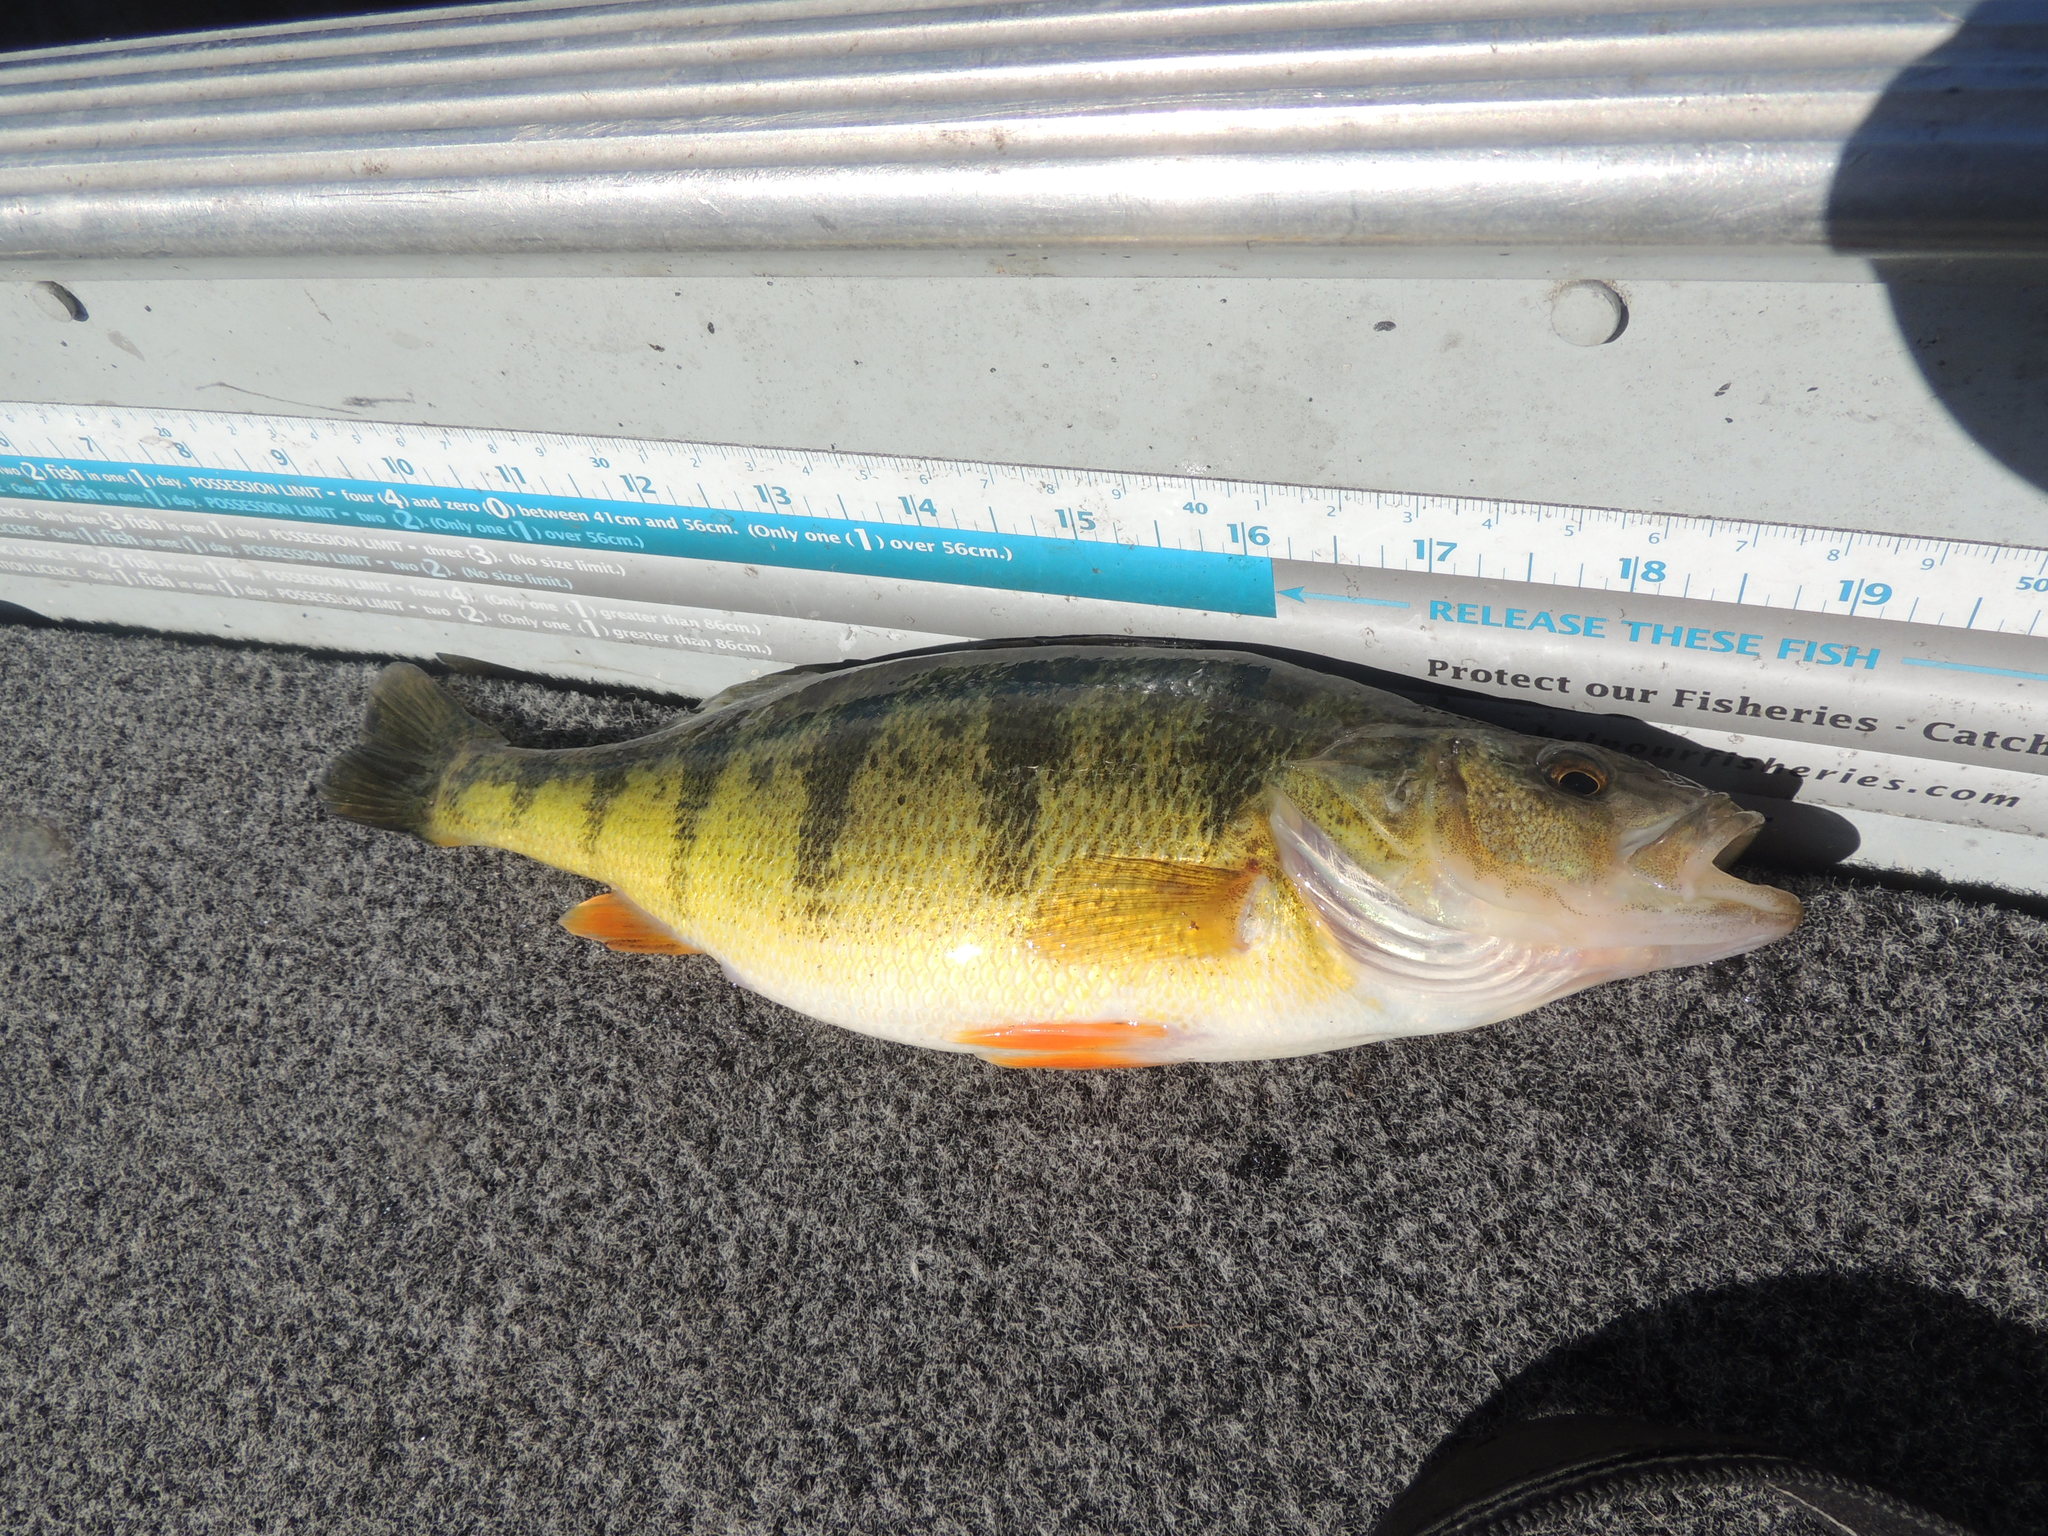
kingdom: Animalia
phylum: Chordata
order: Perciformes
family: Percidae
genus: Perca
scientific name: Perca flavescens
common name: Yellow perch
